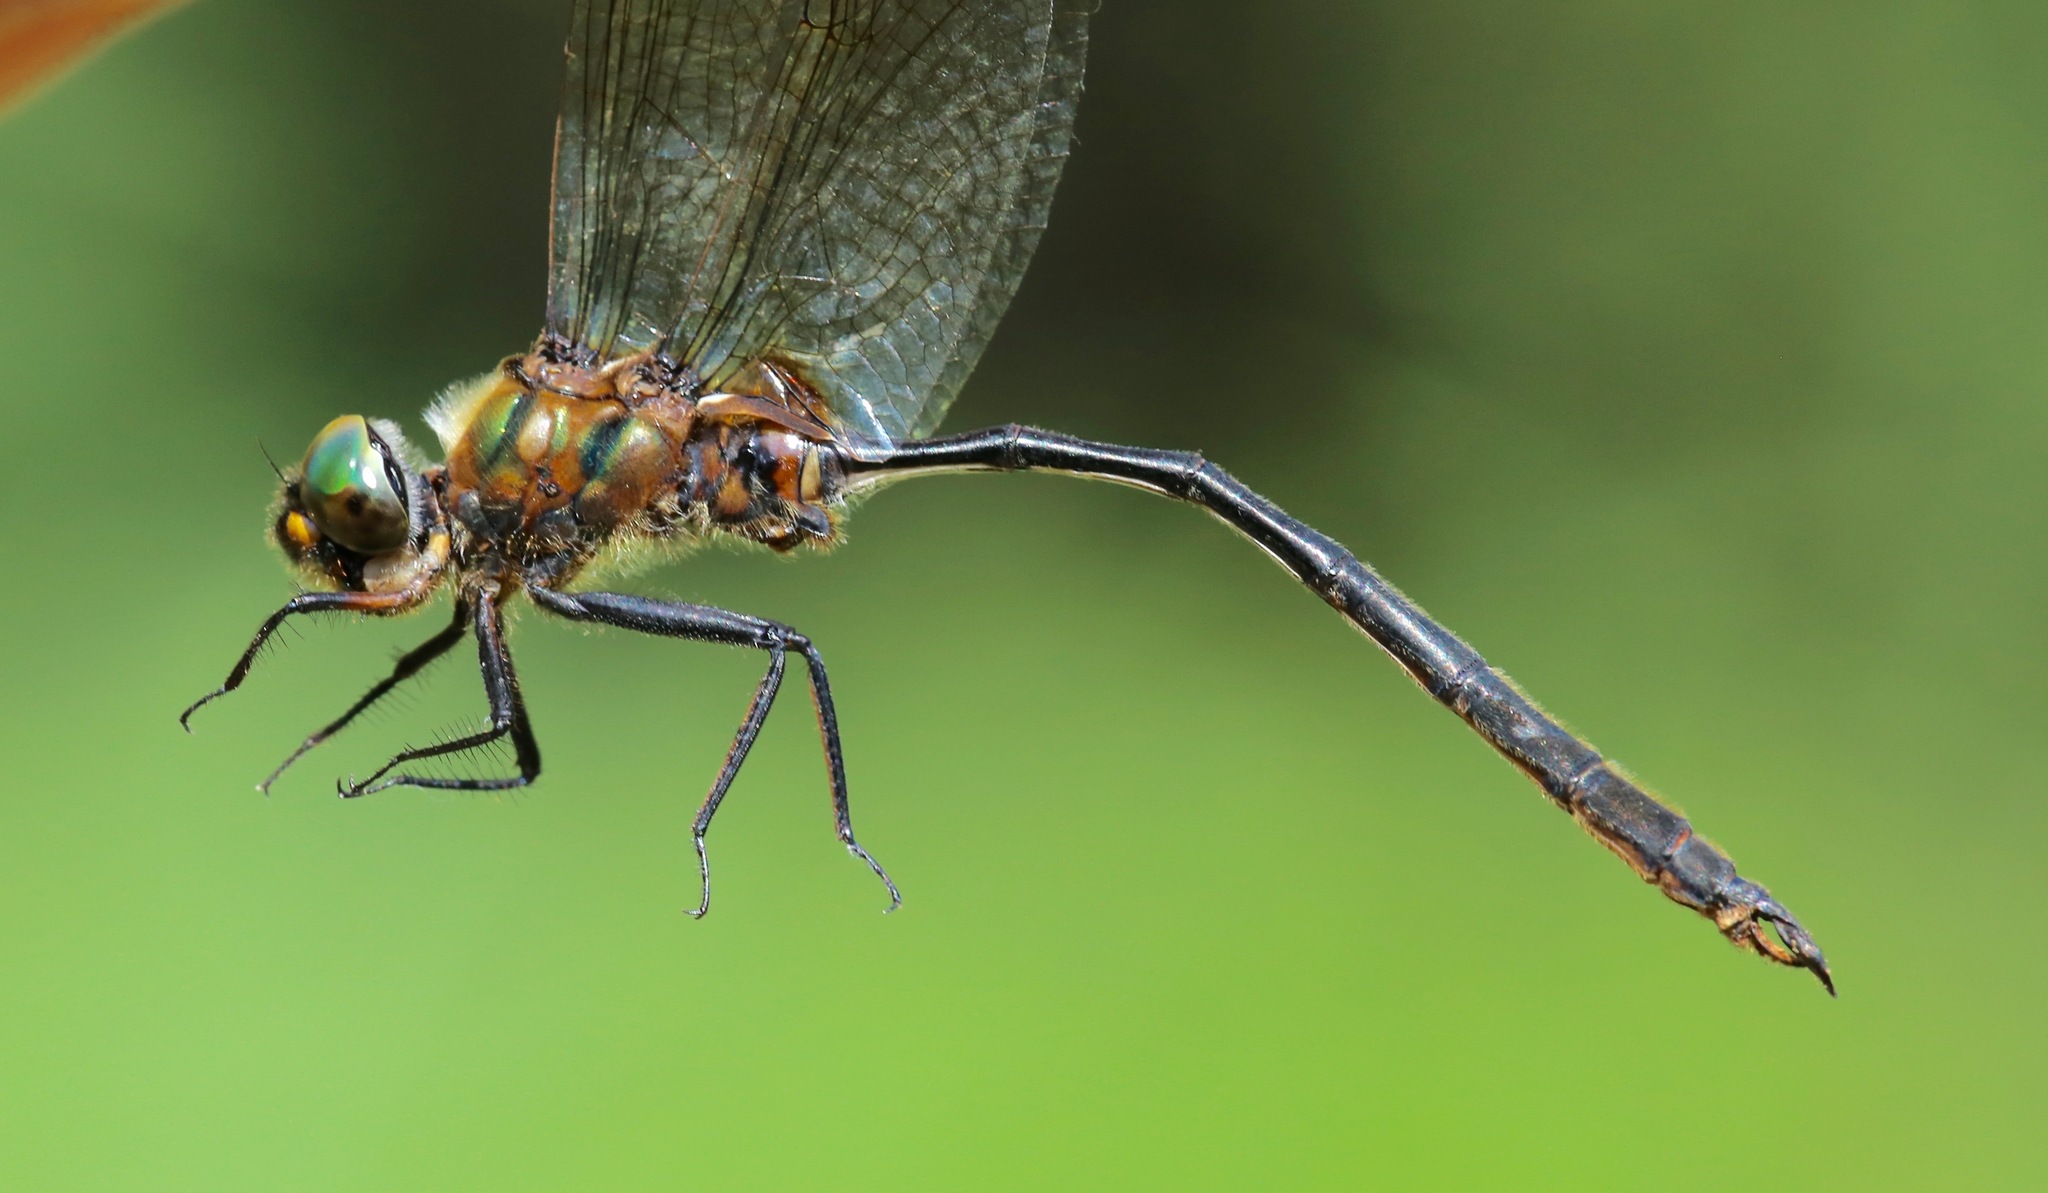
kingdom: Animalia
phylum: Arthropoda
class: Insecta
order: Odonata
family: Corduliidae
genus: Somatochlora
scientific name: Somatochlora franklini
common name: Delicate emerald
